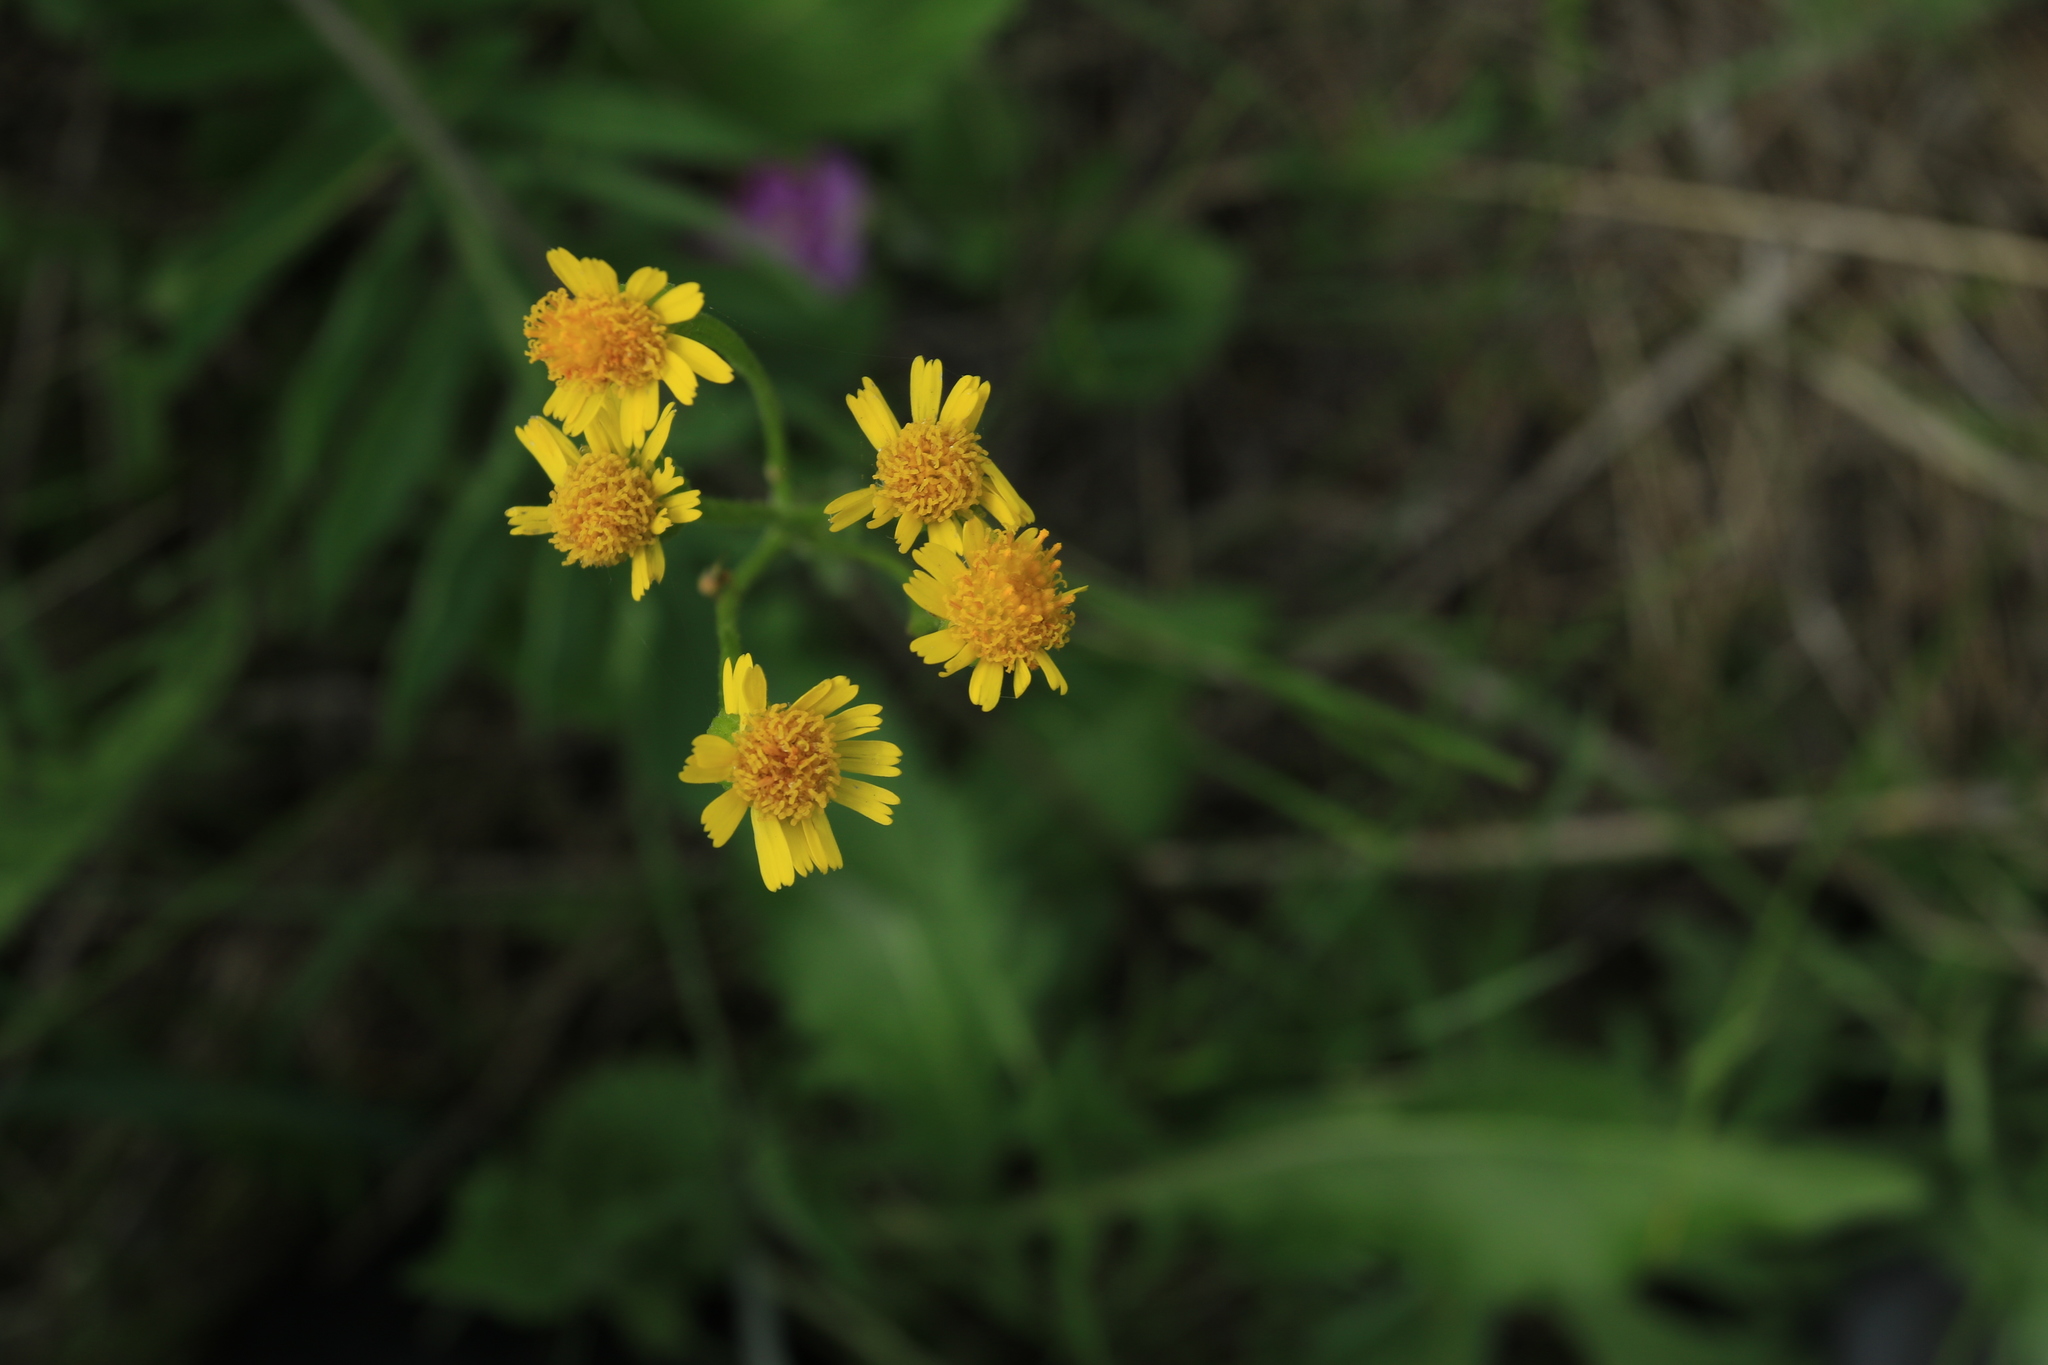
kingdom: Plantae
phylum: Tracheophyta
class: Magnoliopsida
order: Asterales
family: Asteraceae
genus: Tephroseris
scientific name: Tephroseris integrifolia
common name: Field fleawort
